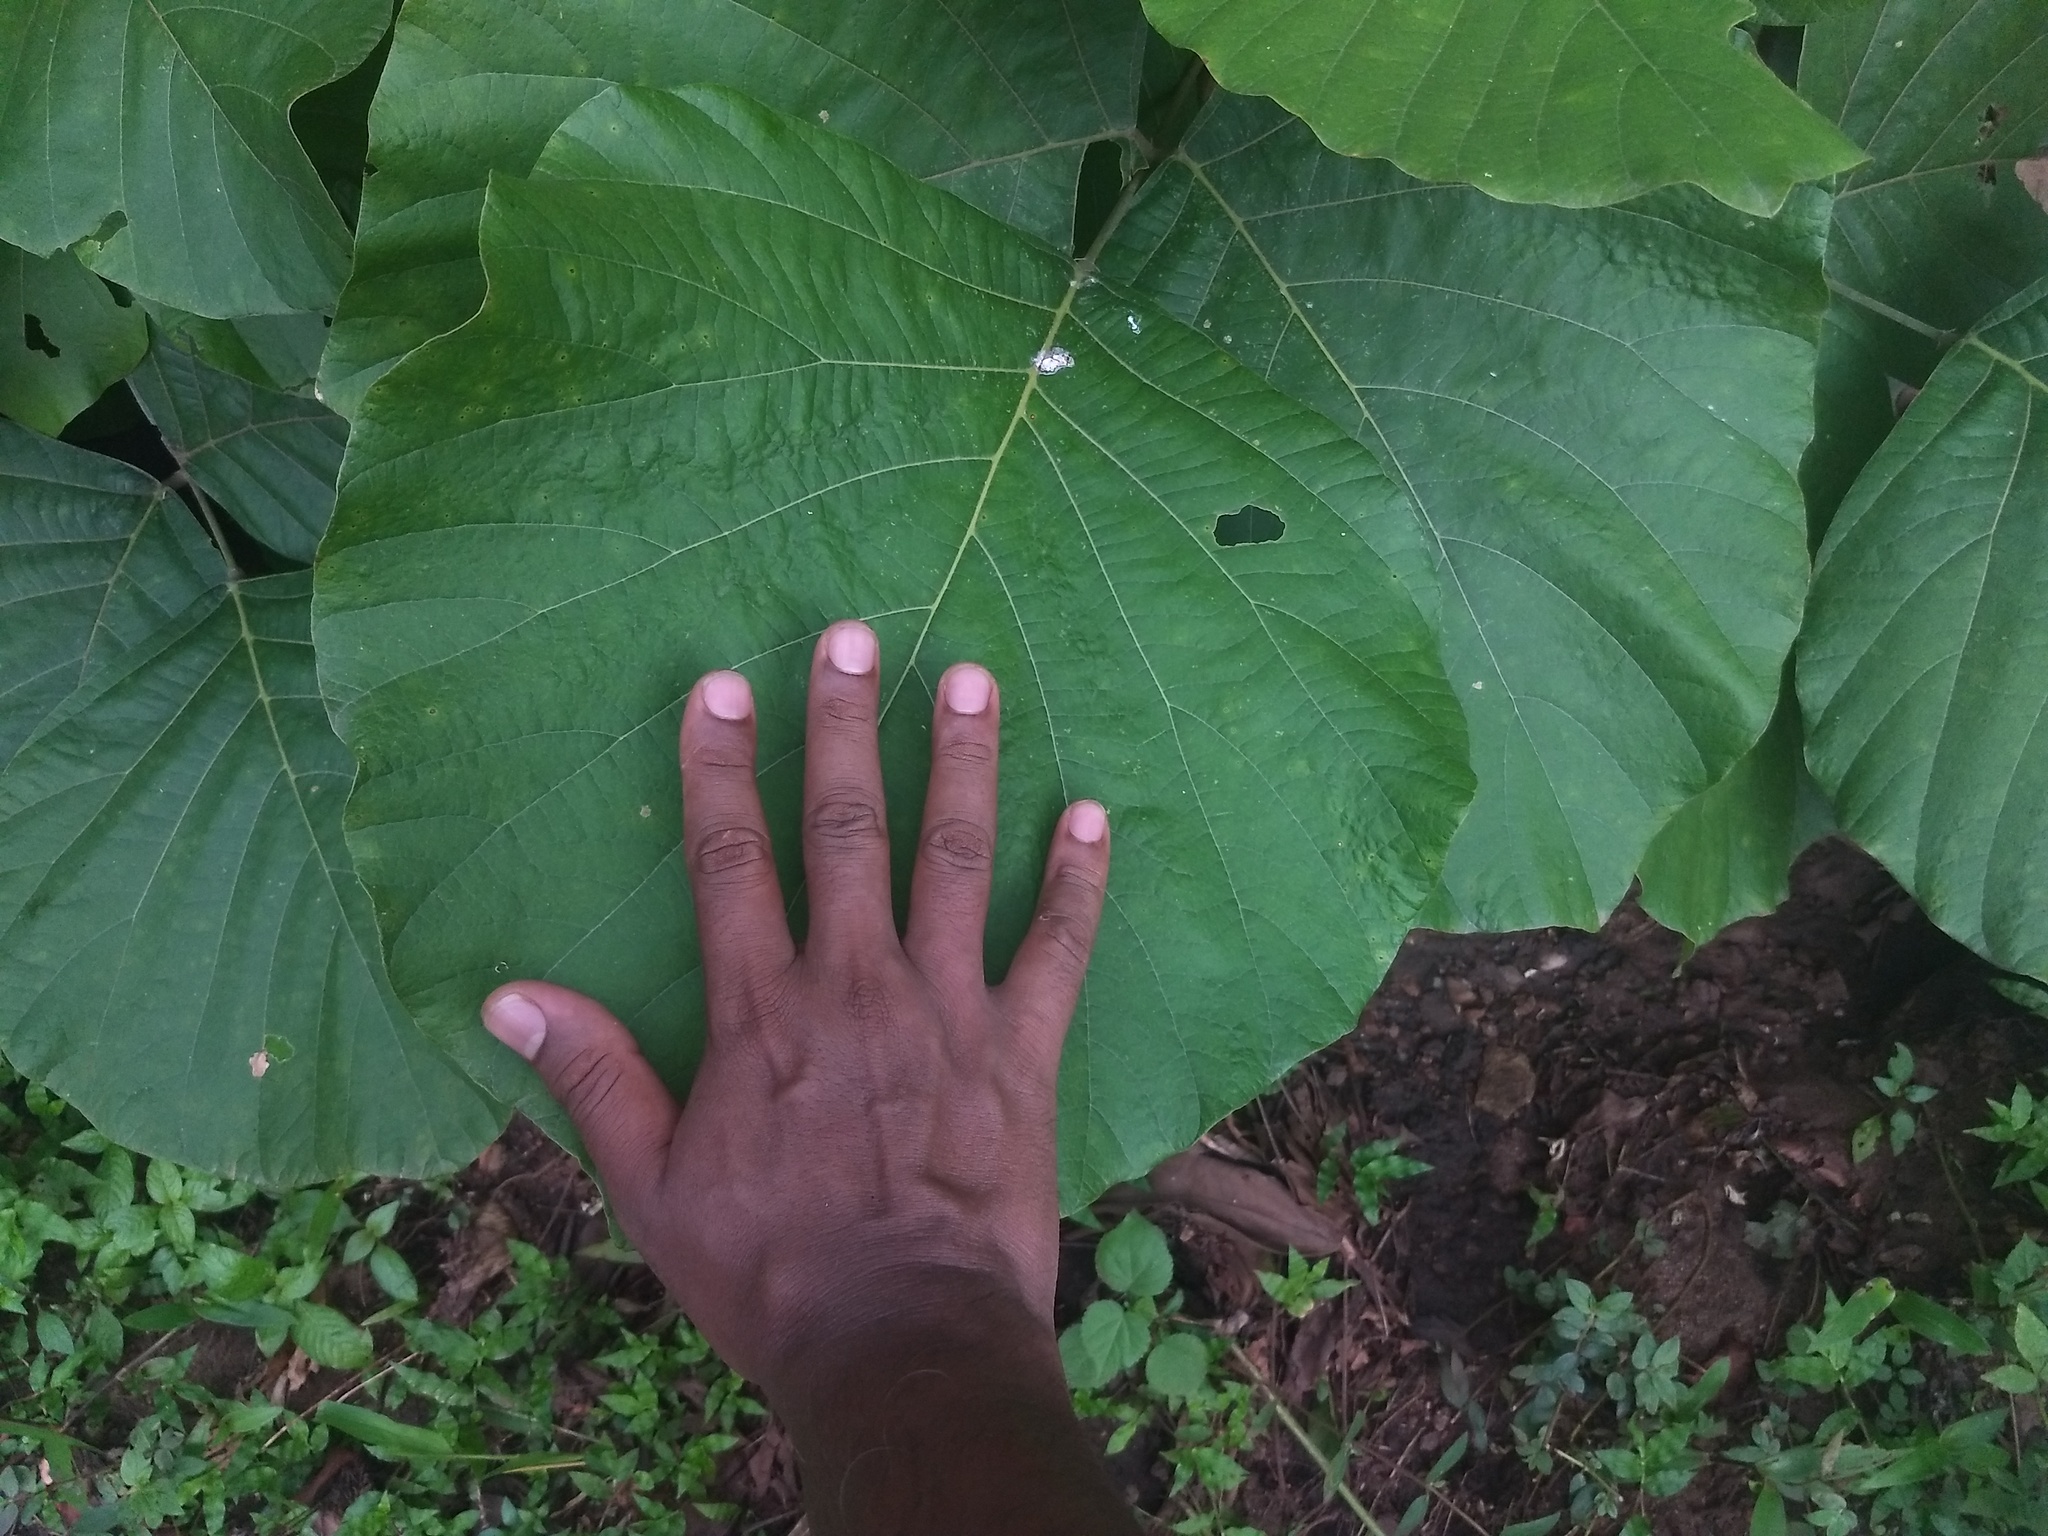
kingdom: Plantae
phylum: Tracheophyta
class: Magnoliopsida
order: Fabales
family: Fabaceae
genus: Butea
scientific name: Butea monosperma
